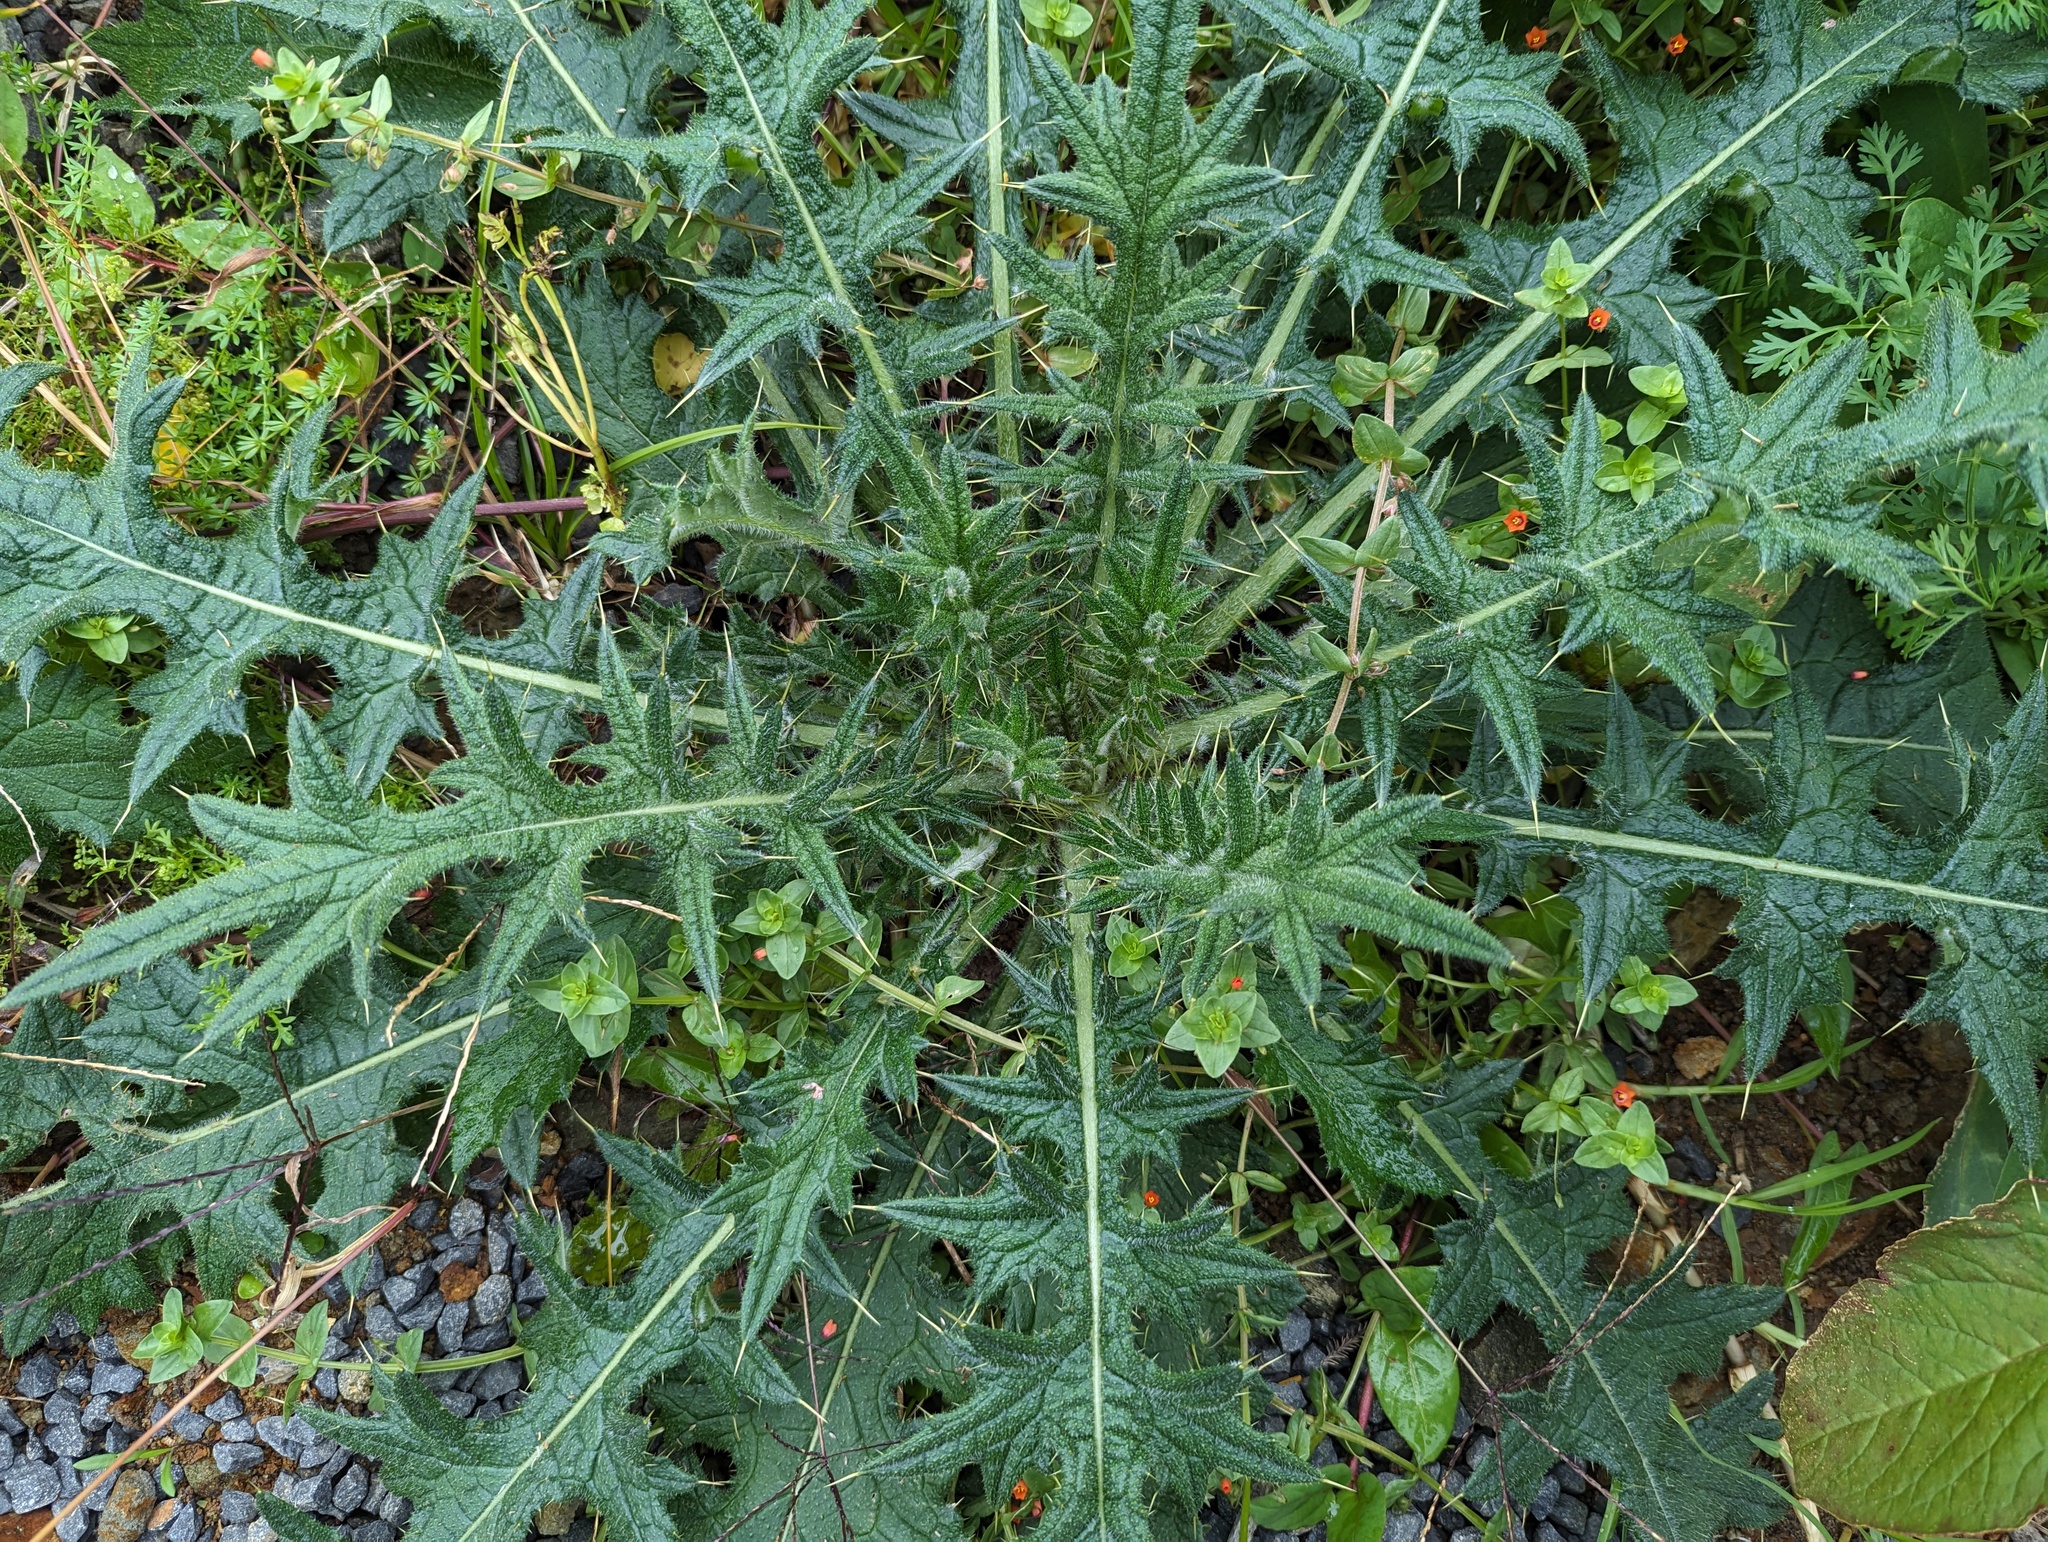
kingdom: Plantae
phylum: Tracheophyta
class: Magnoliopsida
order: Asterales
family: Asteraceae
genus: Cirsium
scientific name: Cirsium vulgare
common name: Bull thistle
